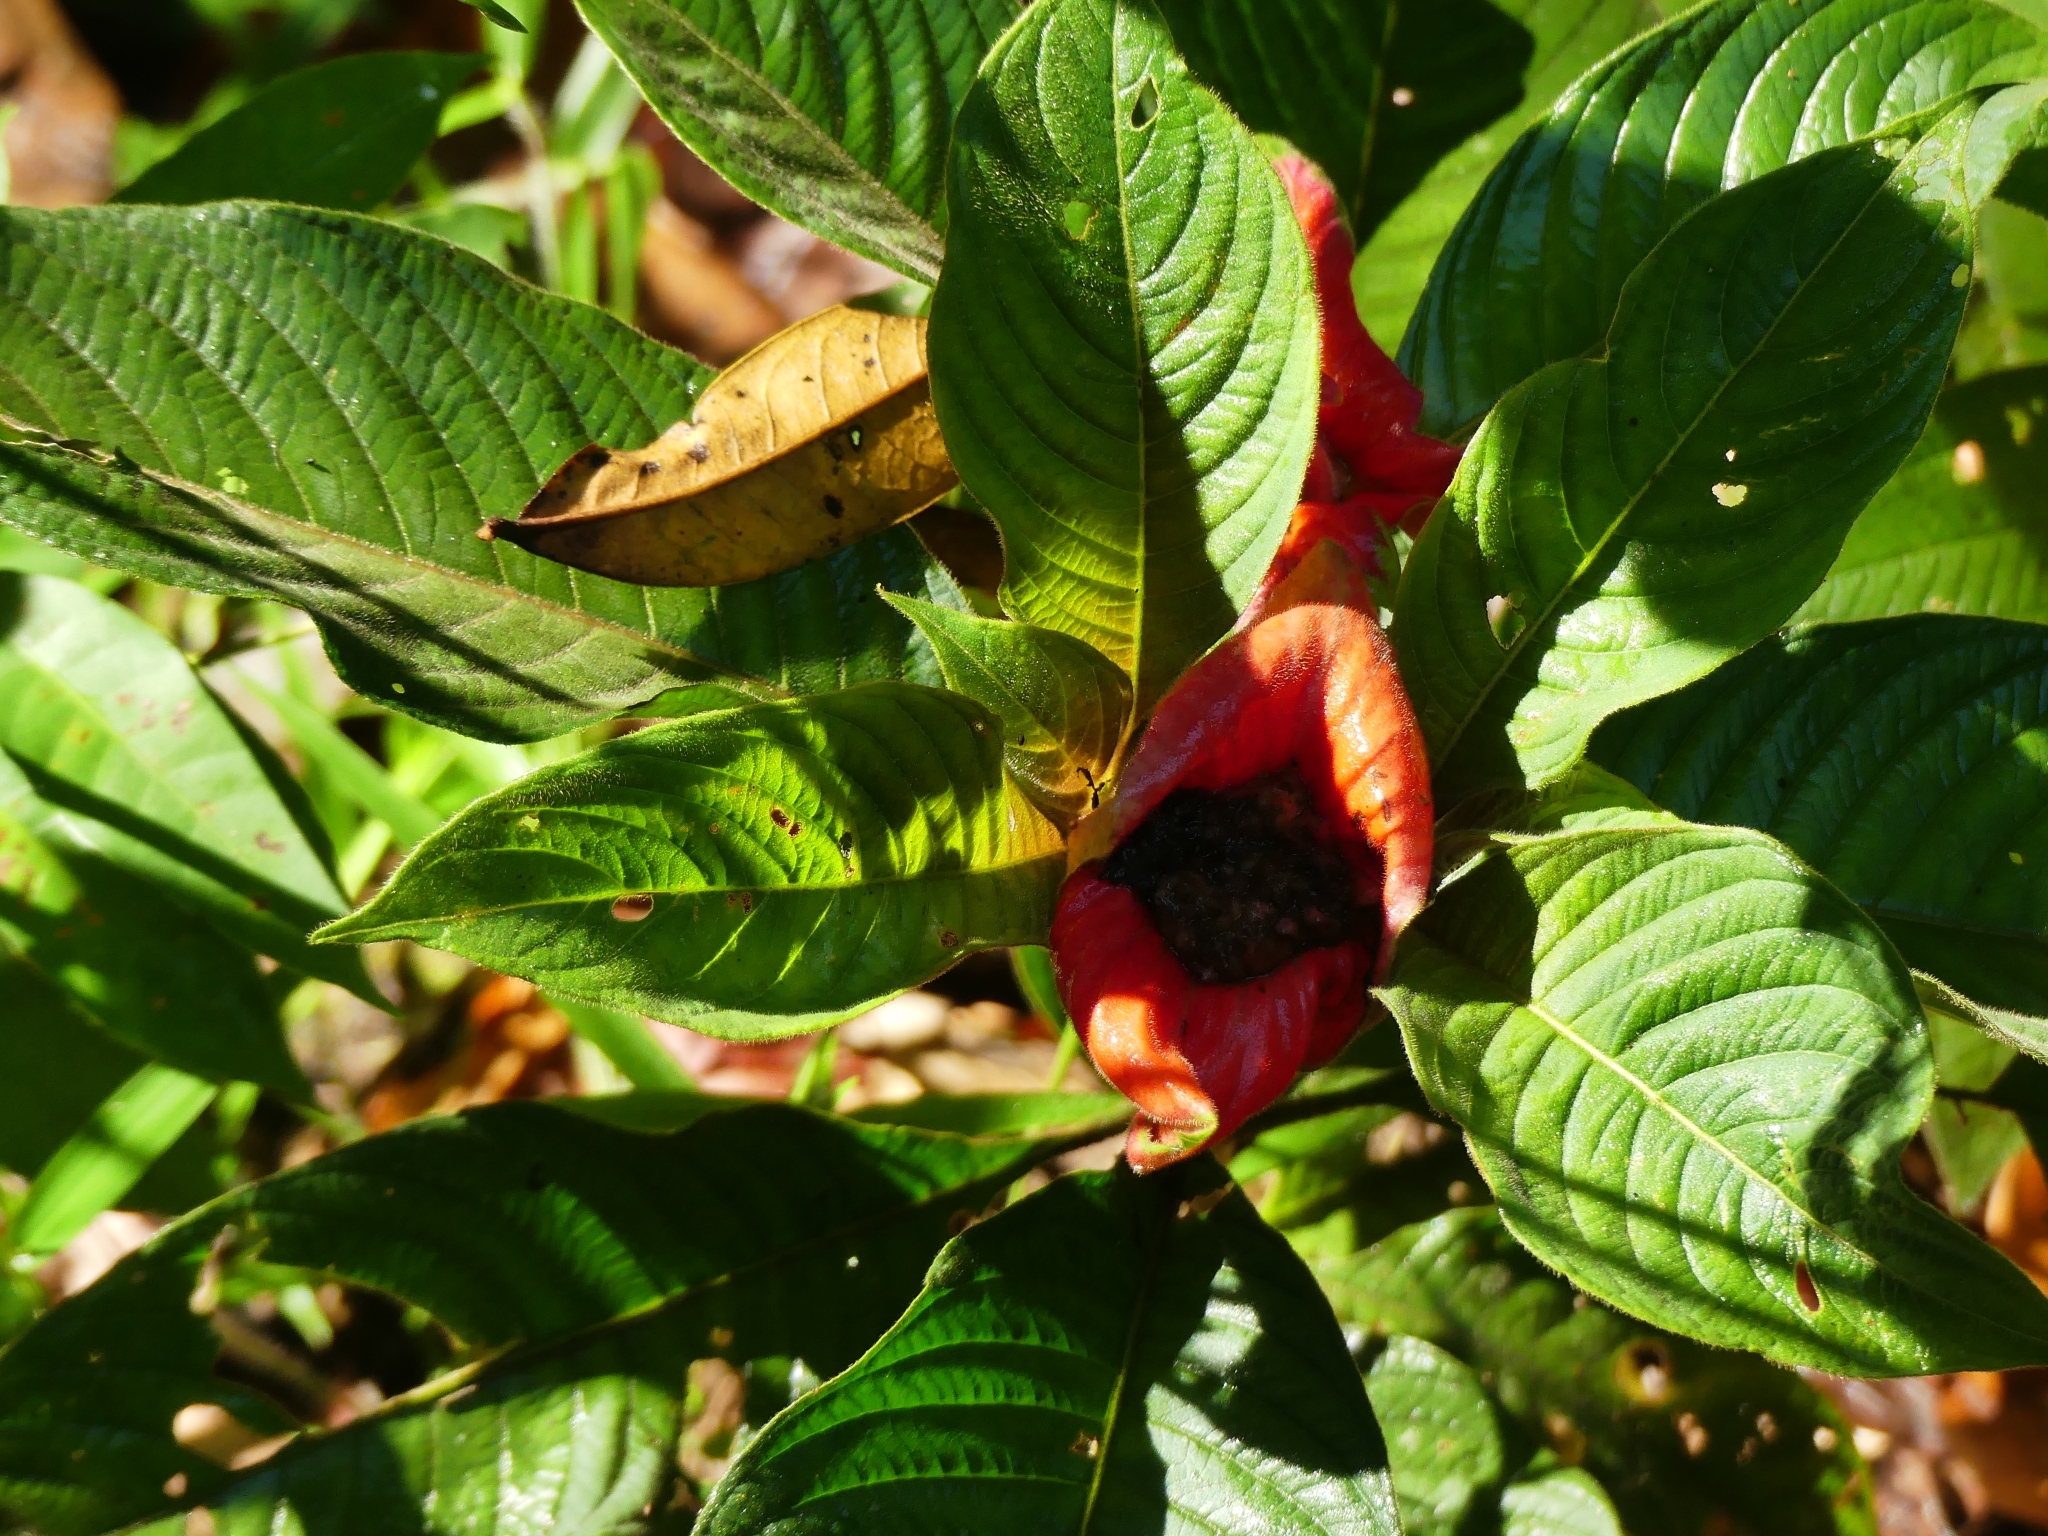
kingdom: Plantae
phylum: Tracheophyta
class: Magnoliopsida
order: Gentianales
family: Rubiaceae
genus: Palicourea
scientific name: Palicourea tomentosa
